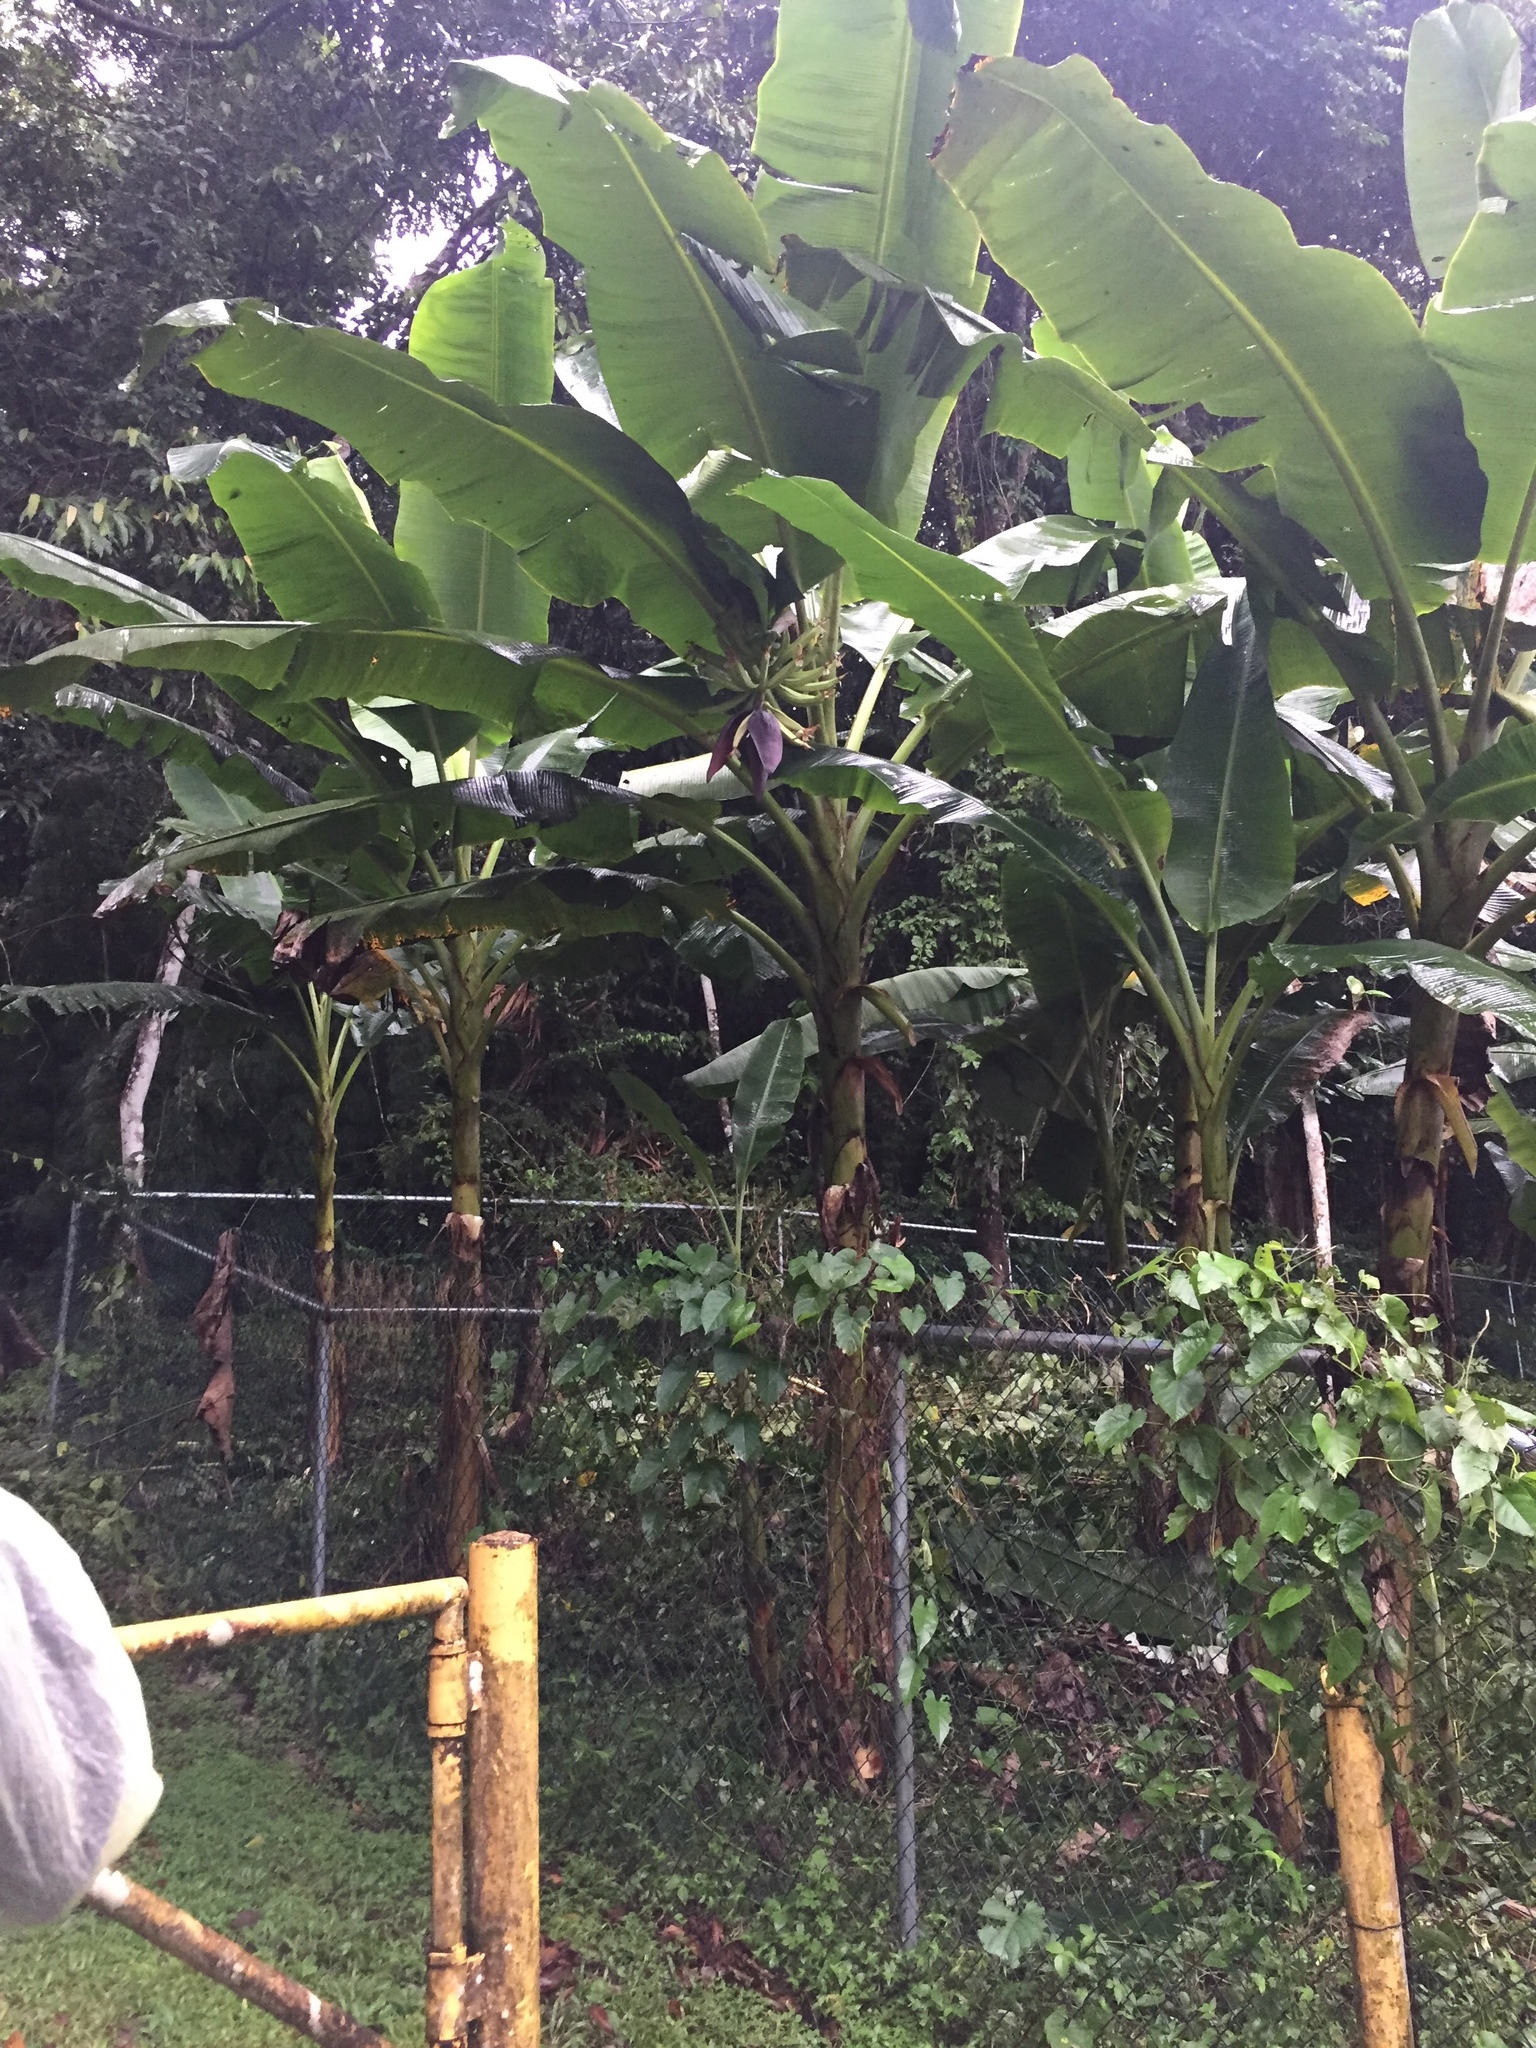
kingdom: Plantae
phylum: Tracheophyta
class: Liliopsida
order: Zingiberales
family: Musaceae
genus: Musa
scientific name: Musa paradisiaca
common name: French plantain
